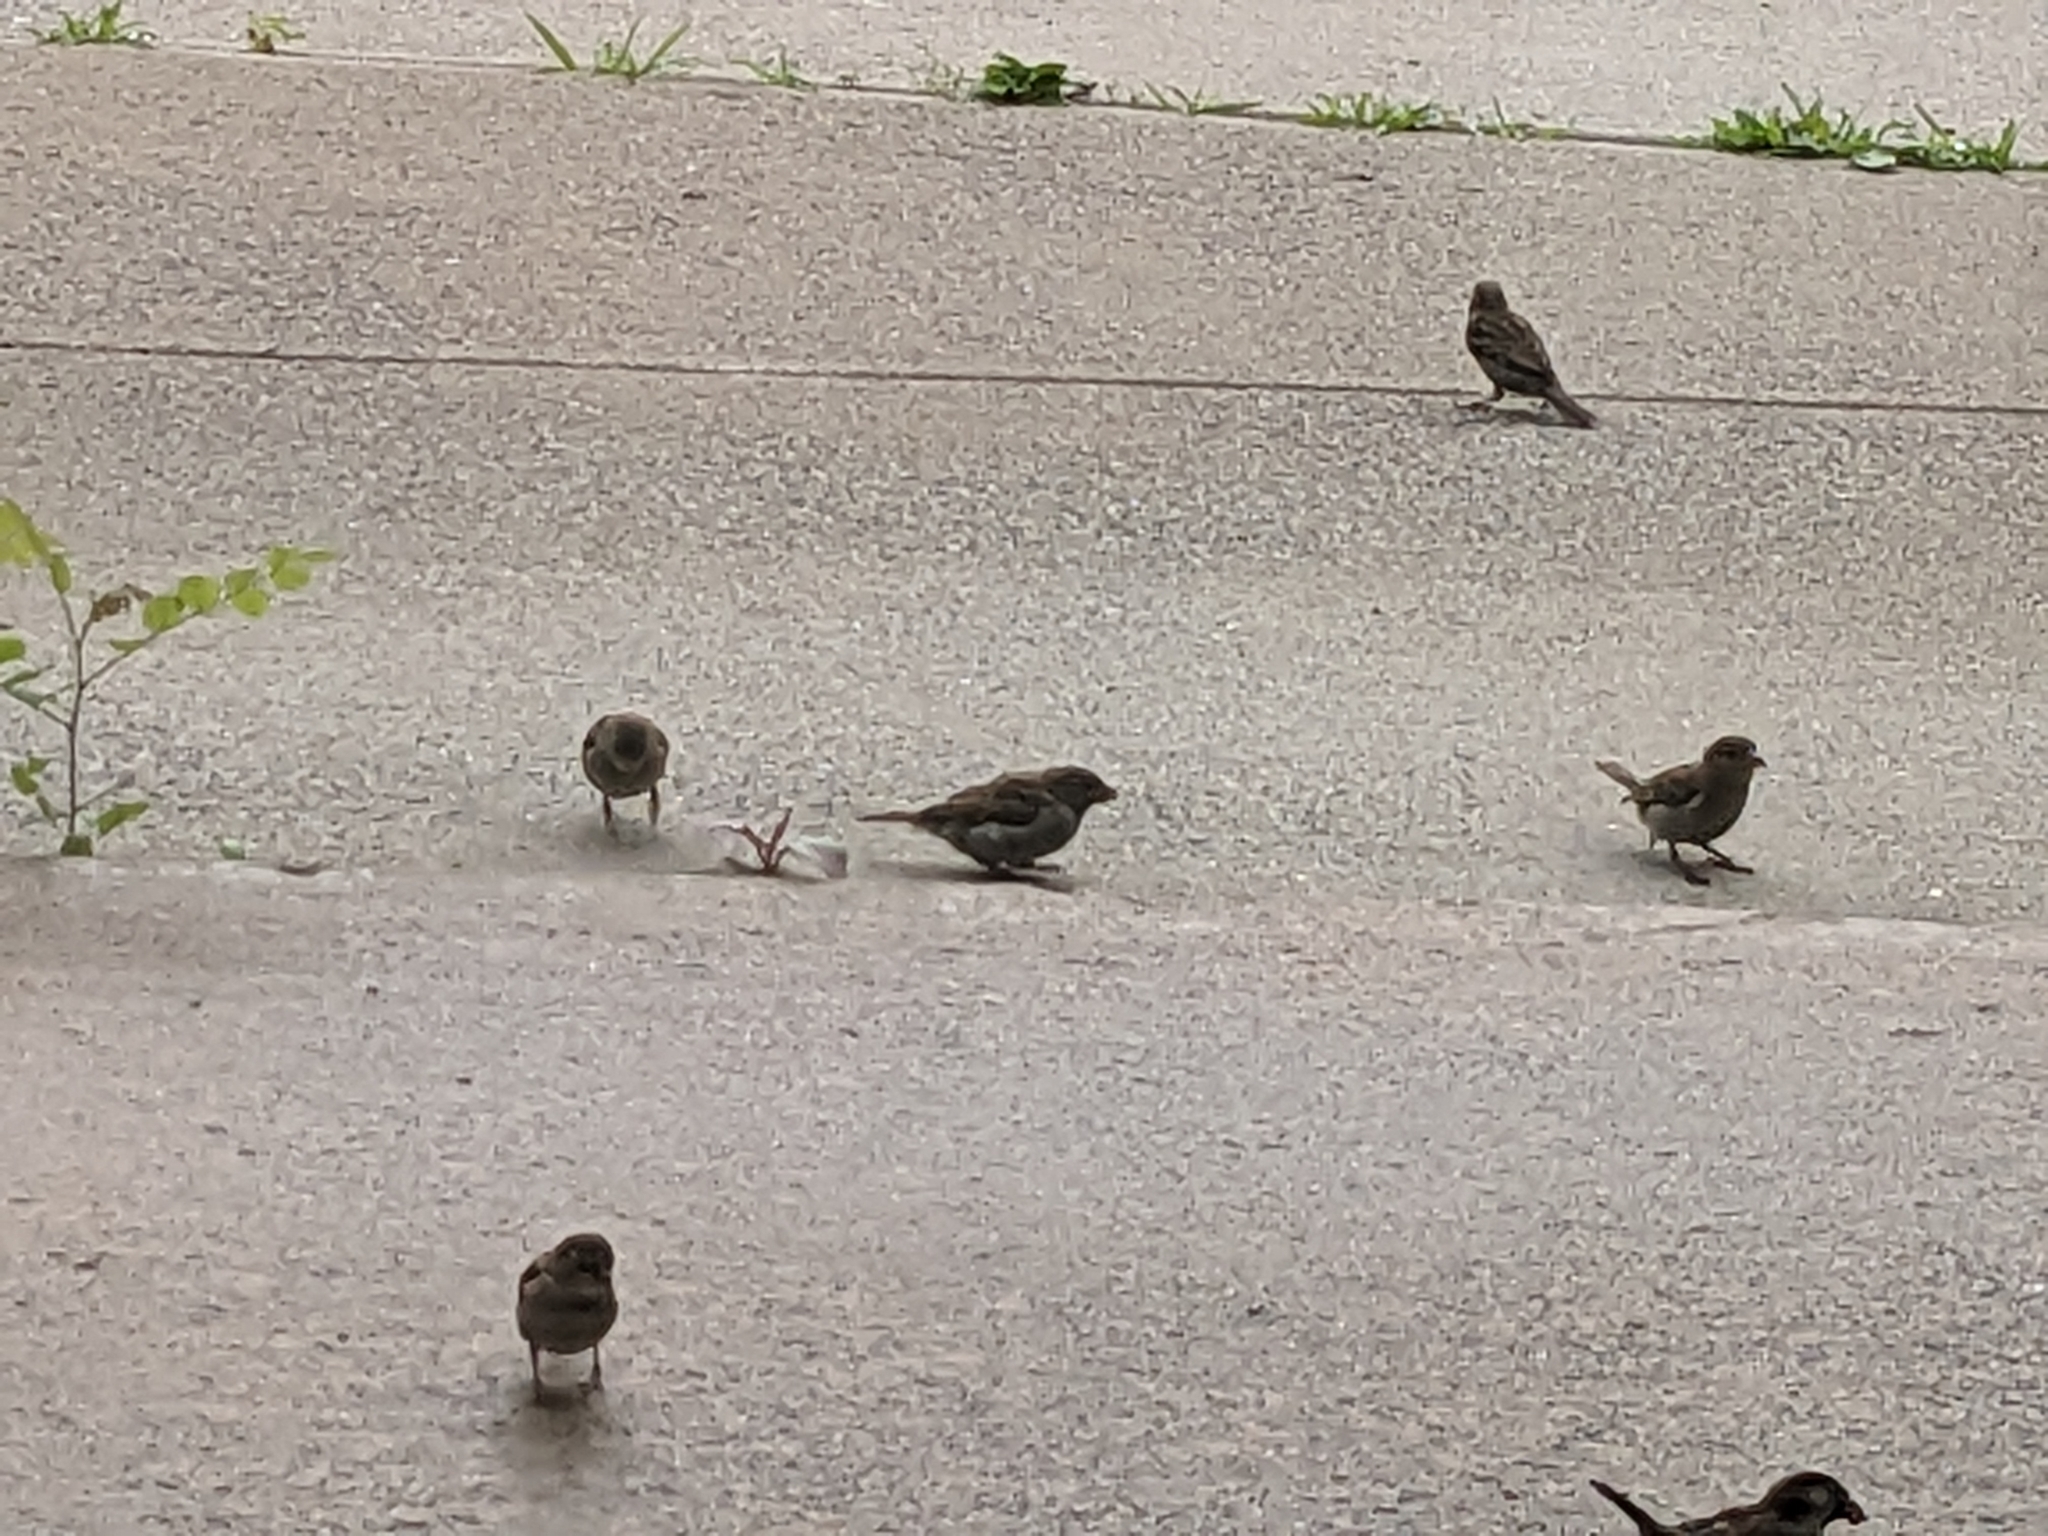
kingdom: Animalia
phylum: Chordata
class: Aves
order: Passeriformes
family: Passeridae
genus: Passer
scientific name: Passer domesticus
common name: House sparrow
